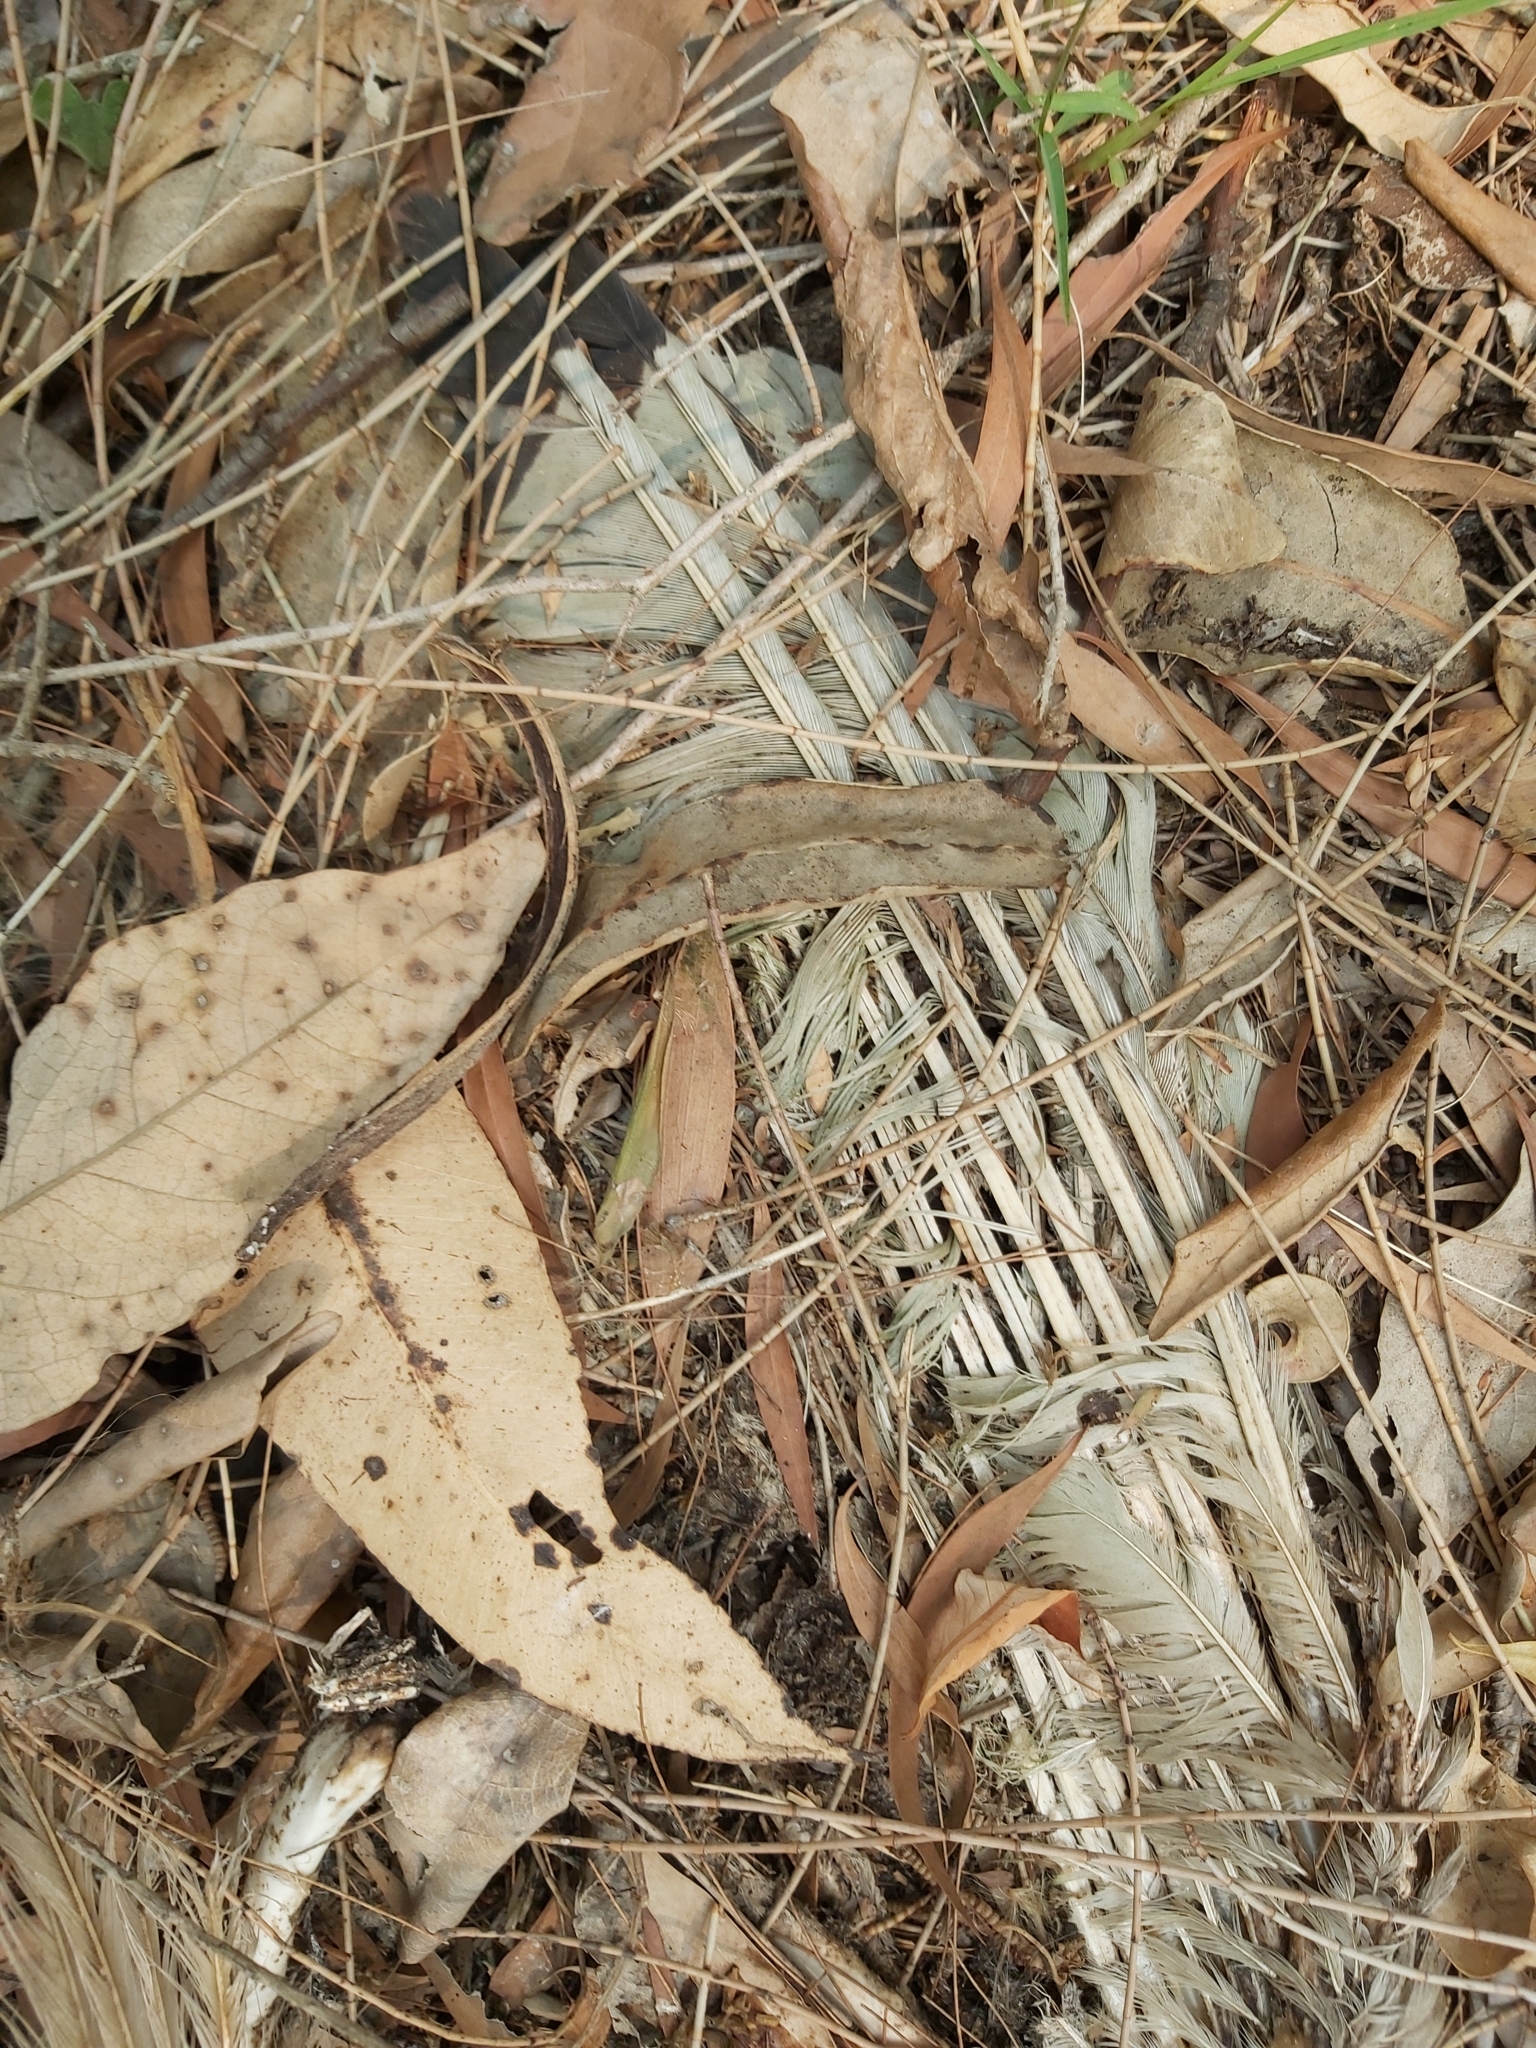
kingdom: Animalia
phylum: Chordata
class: Aves
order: Pelecaniformes
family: Threskiornithidae
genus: Threskiornis
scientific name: Threskiornis molucca
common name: Australian white ibis
